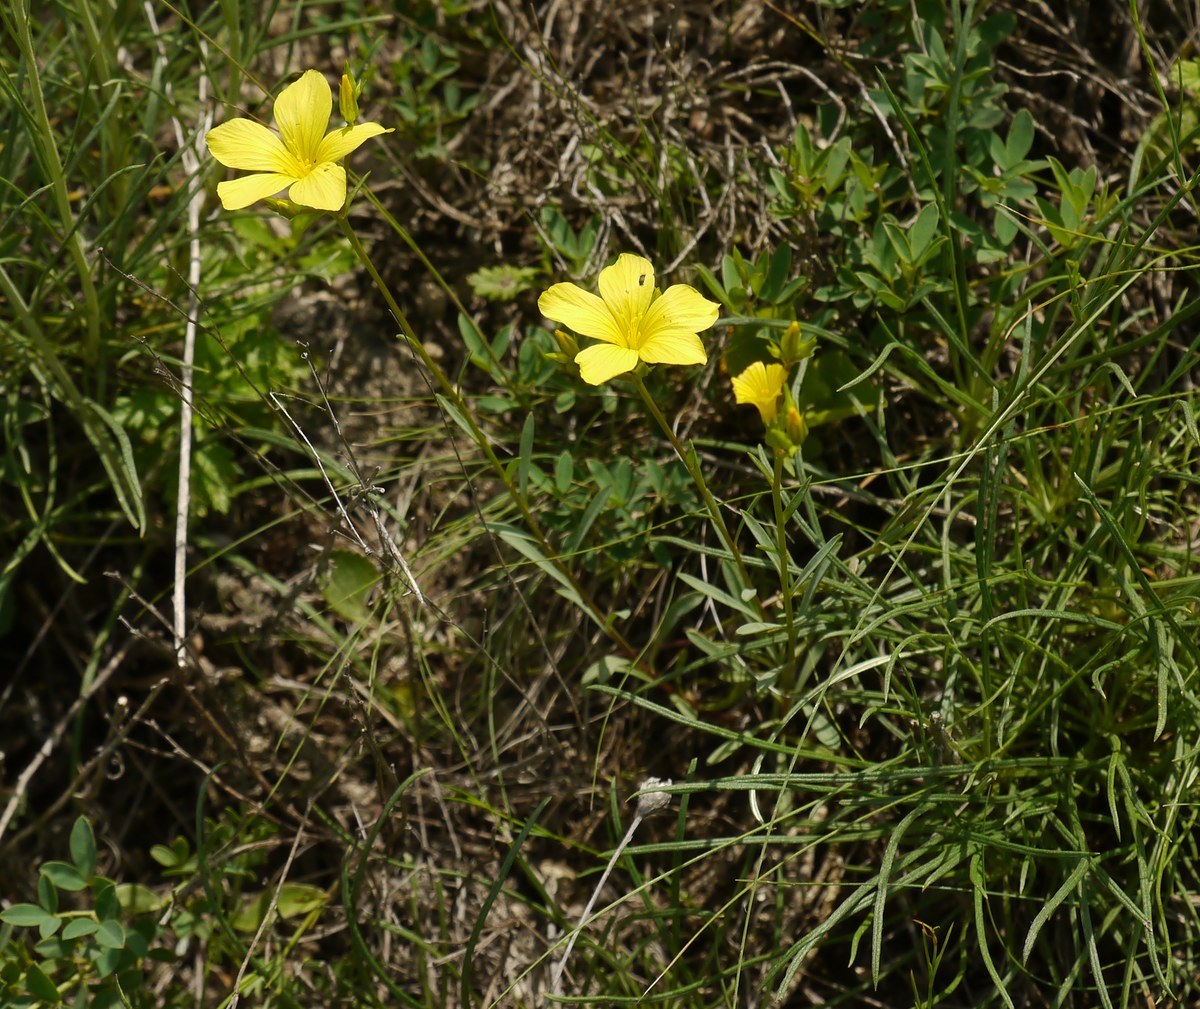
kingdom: Plantae
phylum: Tracheophyta
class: Magnoliopsida
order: Malpighiales
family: Linaceae
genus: Linum
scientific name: Linum pallasianum
